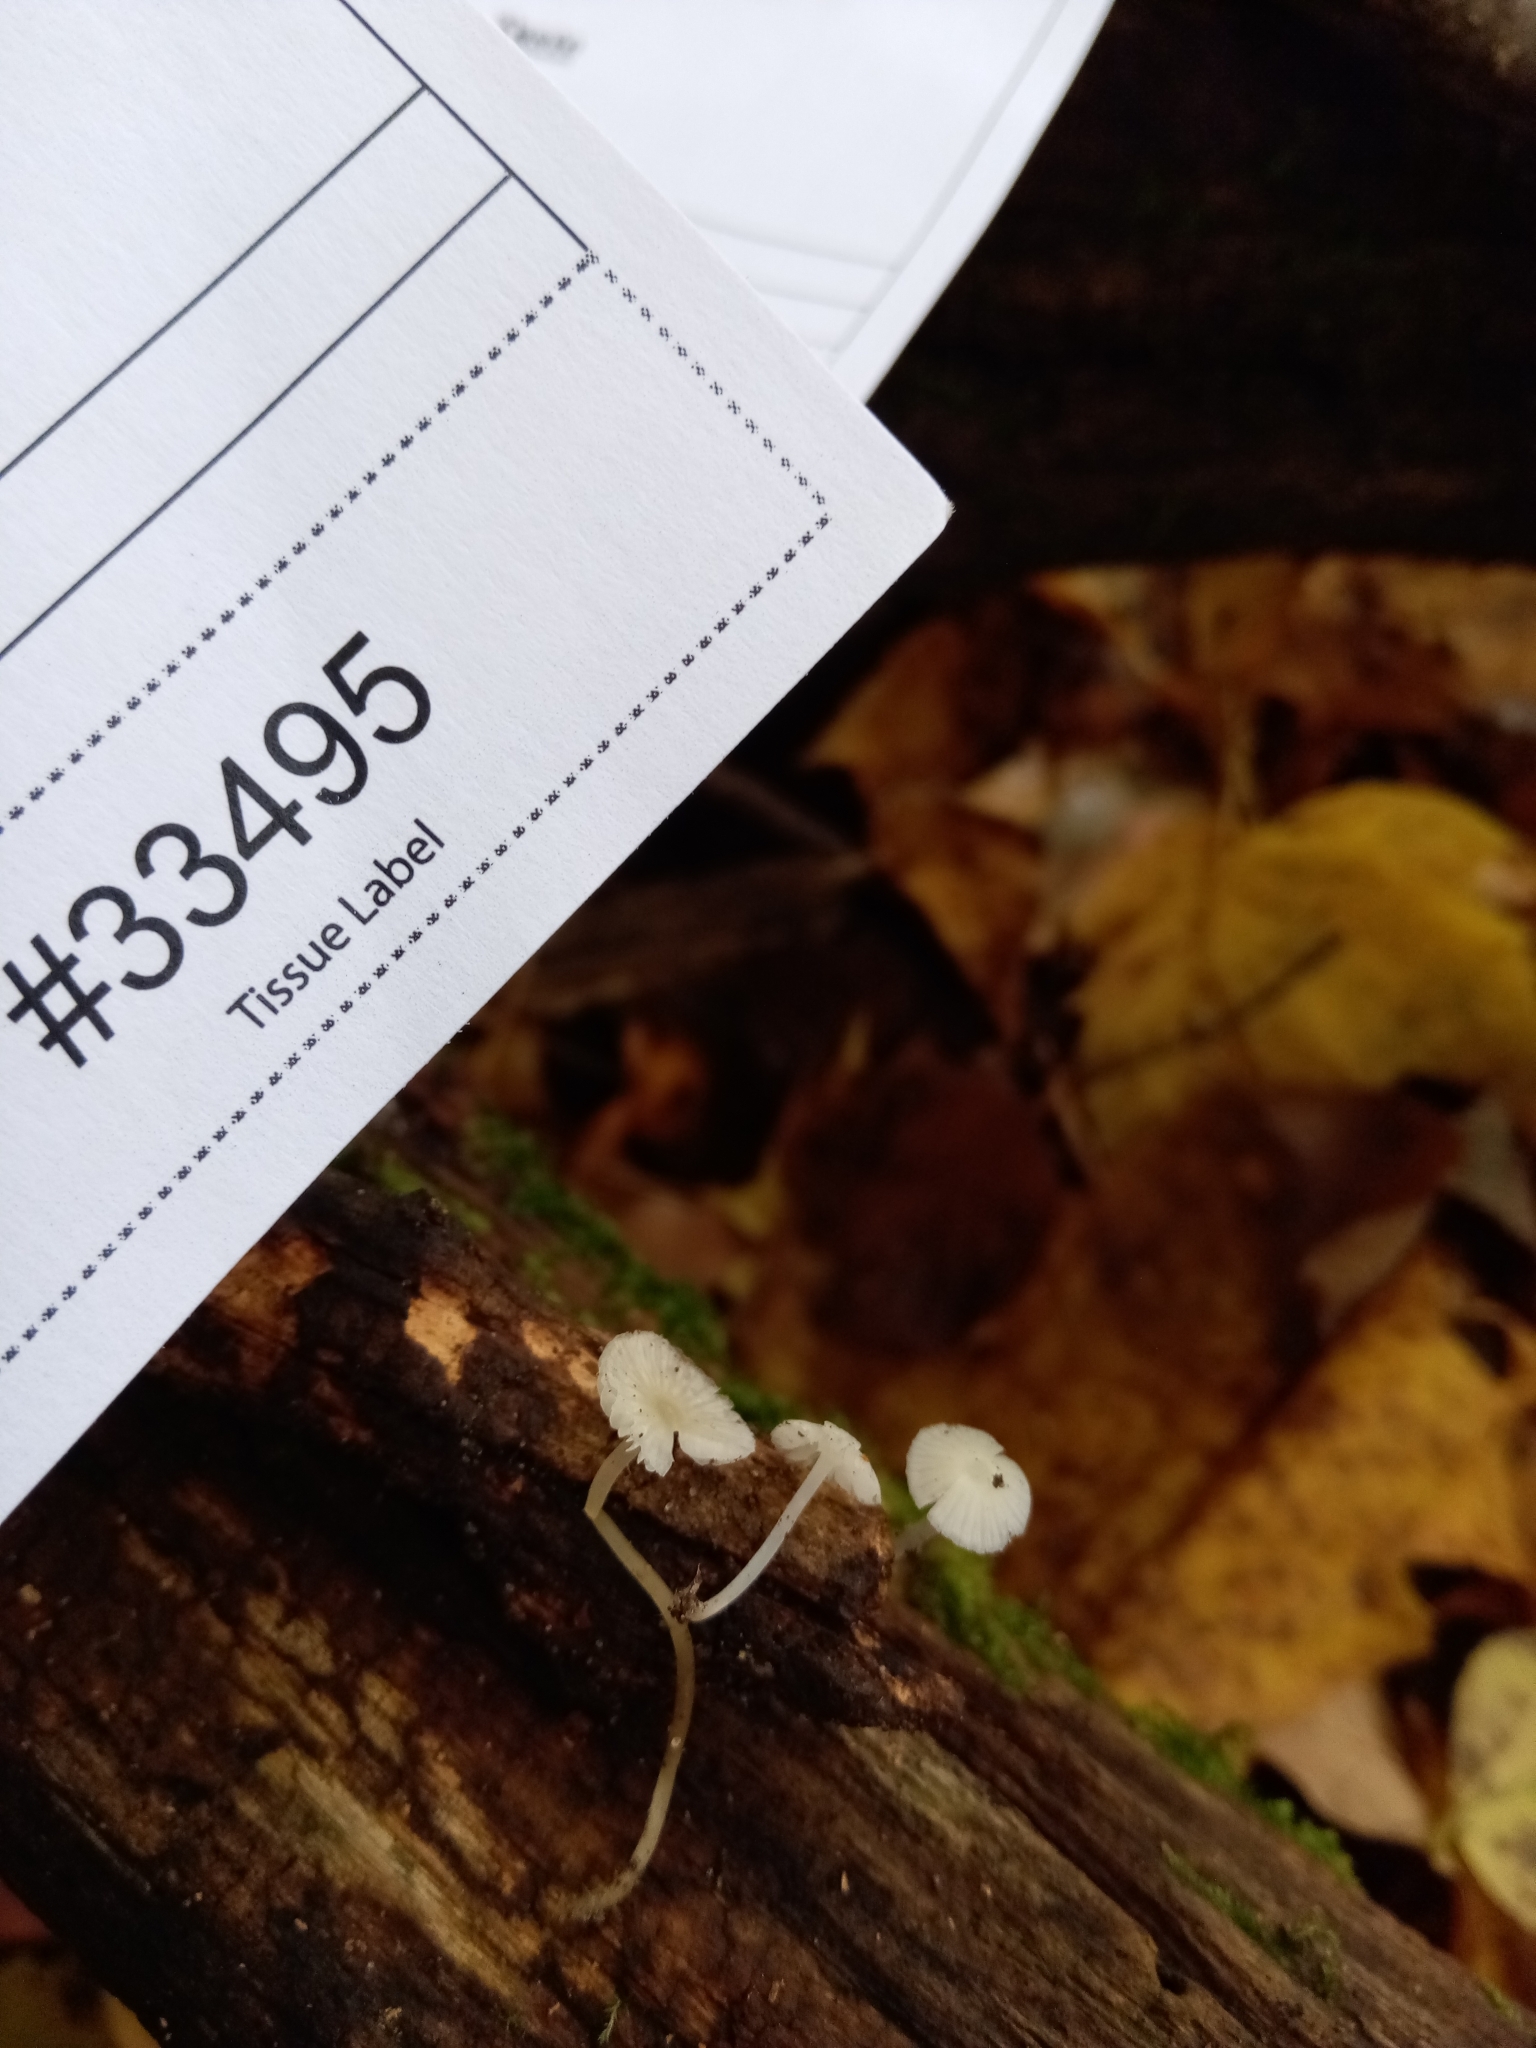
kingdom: Fungi
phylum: Basidiomycota
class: Agaricomycetes
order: Agaricales
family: Porotheleaceae
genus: Phloeomana
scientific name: Phloeomana minutula
